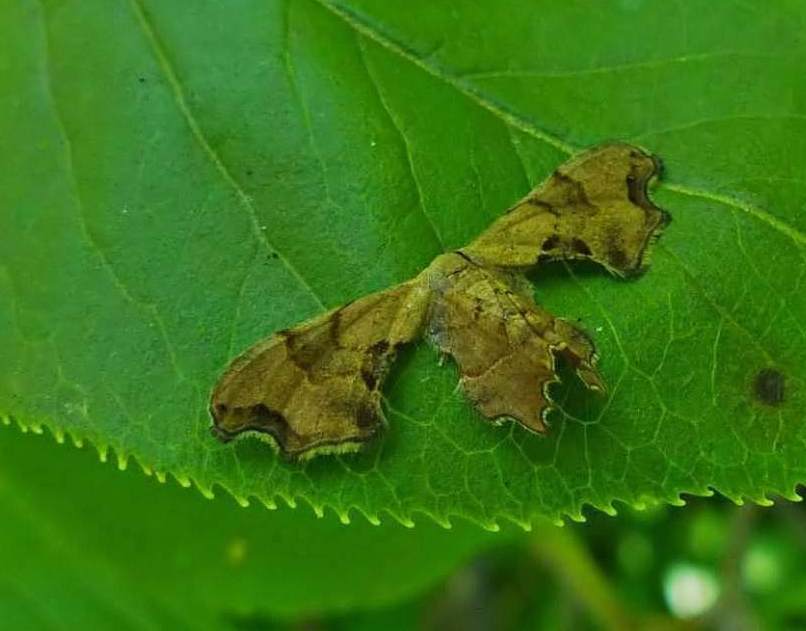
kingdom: Animalia
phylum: Arthropoda
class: Insecta
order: Lepidoptera
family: Uraniidae
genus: Epiplema
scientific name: Epiplema Calledapteryx dryopterata
